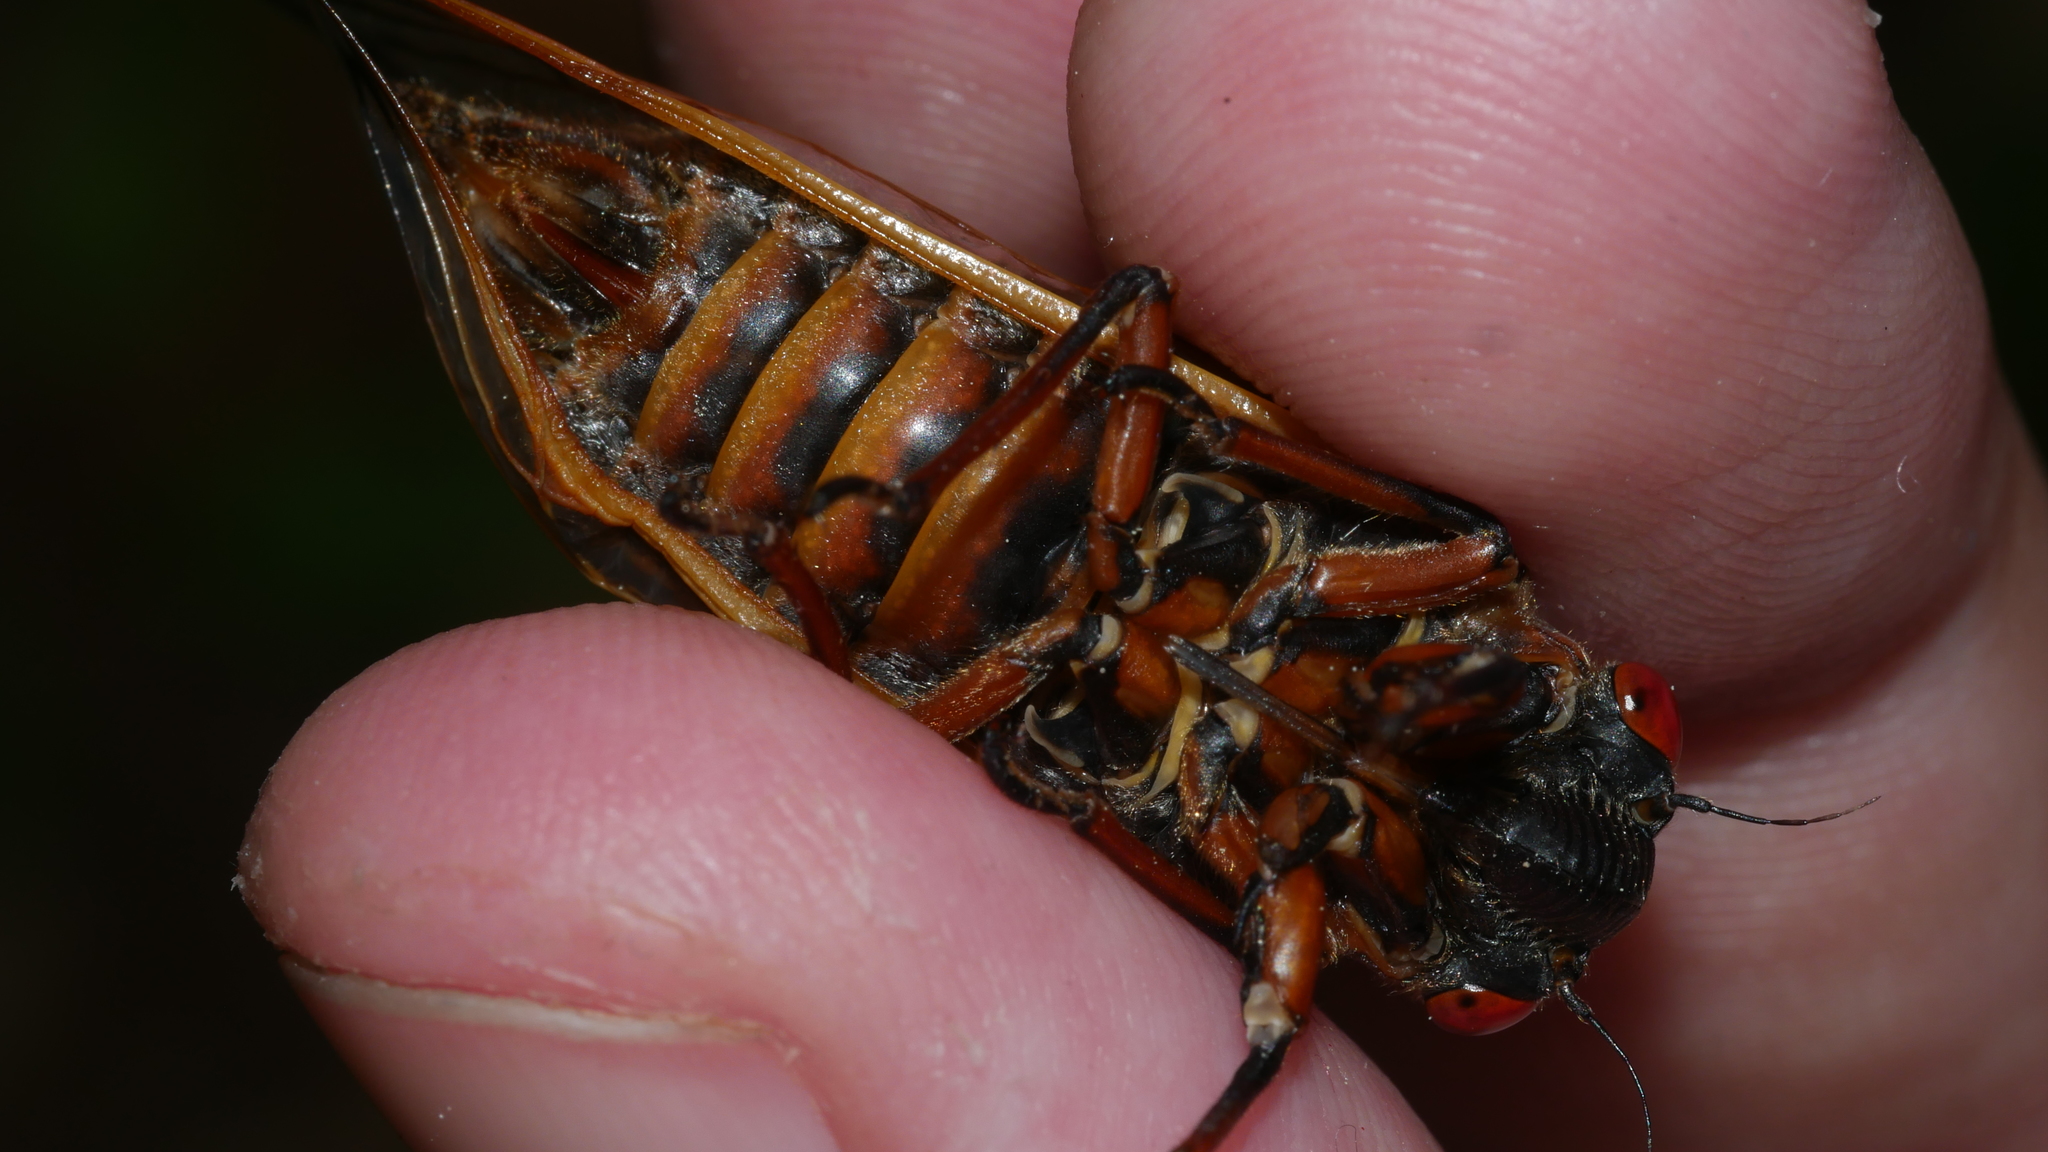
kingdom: Animalia
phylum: Arthropoda
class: Insecta
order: Hemiptera
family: Cicadidae
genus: Magicicada
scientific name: Magicicada septendecim
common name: Periodical cicada
